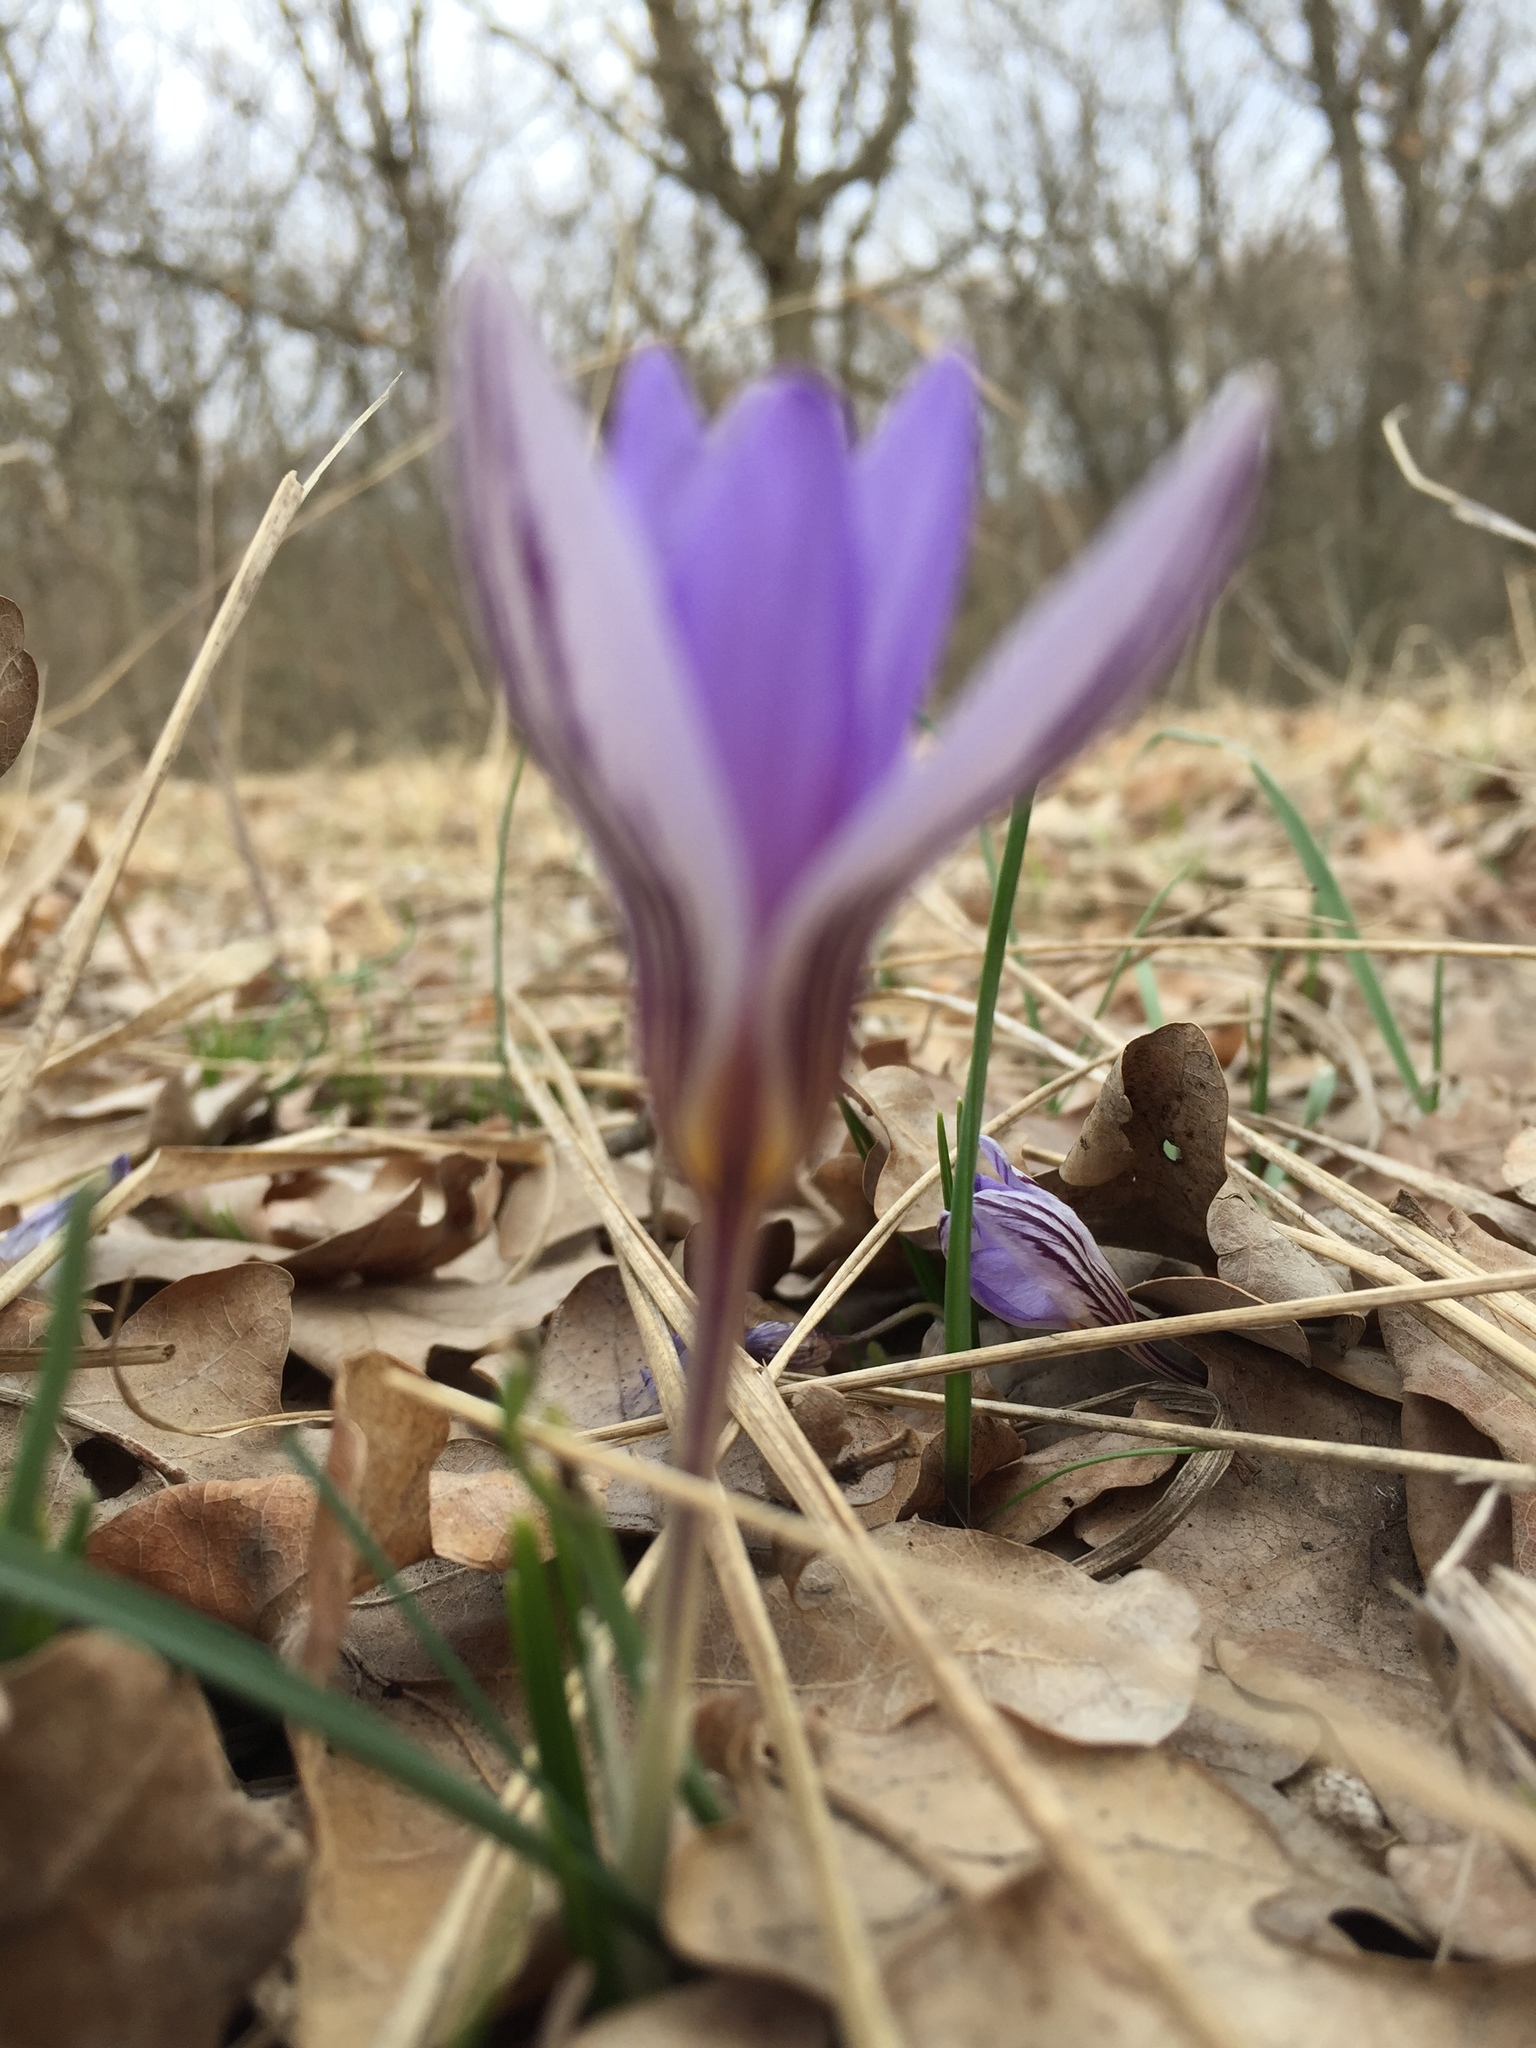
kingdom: Plantae
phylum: Tracheophyta
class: Liliopsida
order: Asparagales
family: Iridaceae
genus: Crocus
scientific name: Crocus reticulatus
